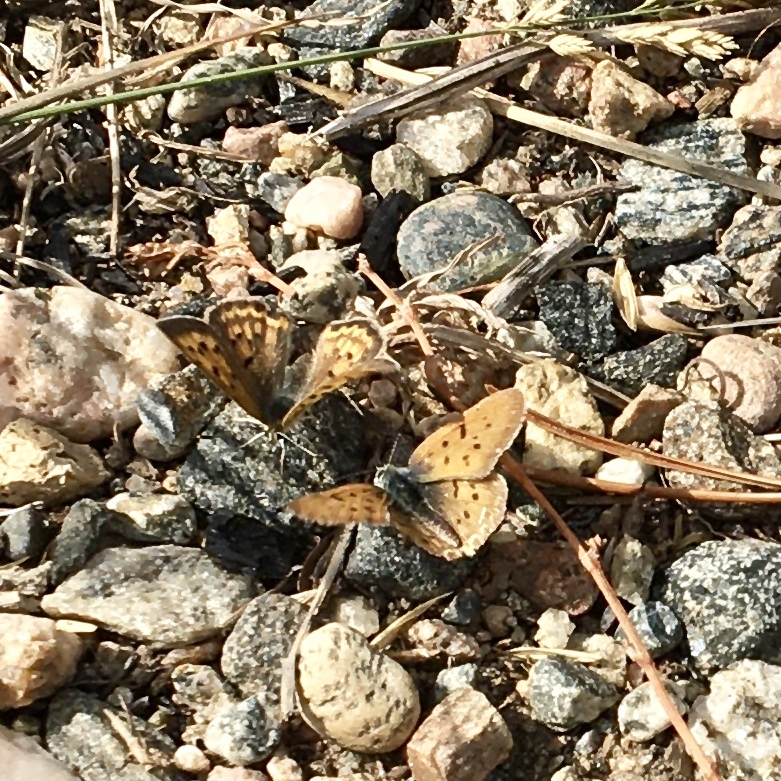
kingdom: Animalia
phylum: Arthropoda
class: Insecta
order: Lepidoptera
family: Lycaenidae
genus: Tharsalea
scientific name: Tharsalea helloides
